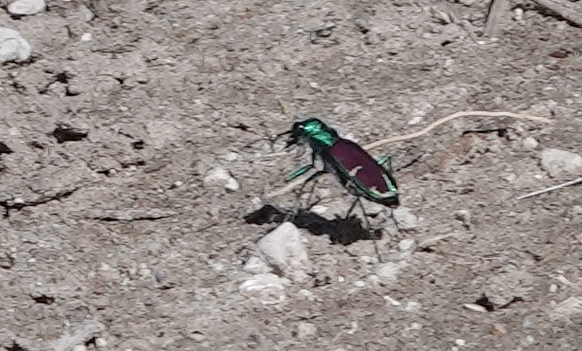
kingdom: Animalia
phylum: Arthropoda
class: Insecta
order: Coleoptera
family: Carabidae
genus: Cicindela
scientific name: Cicindela splendida
